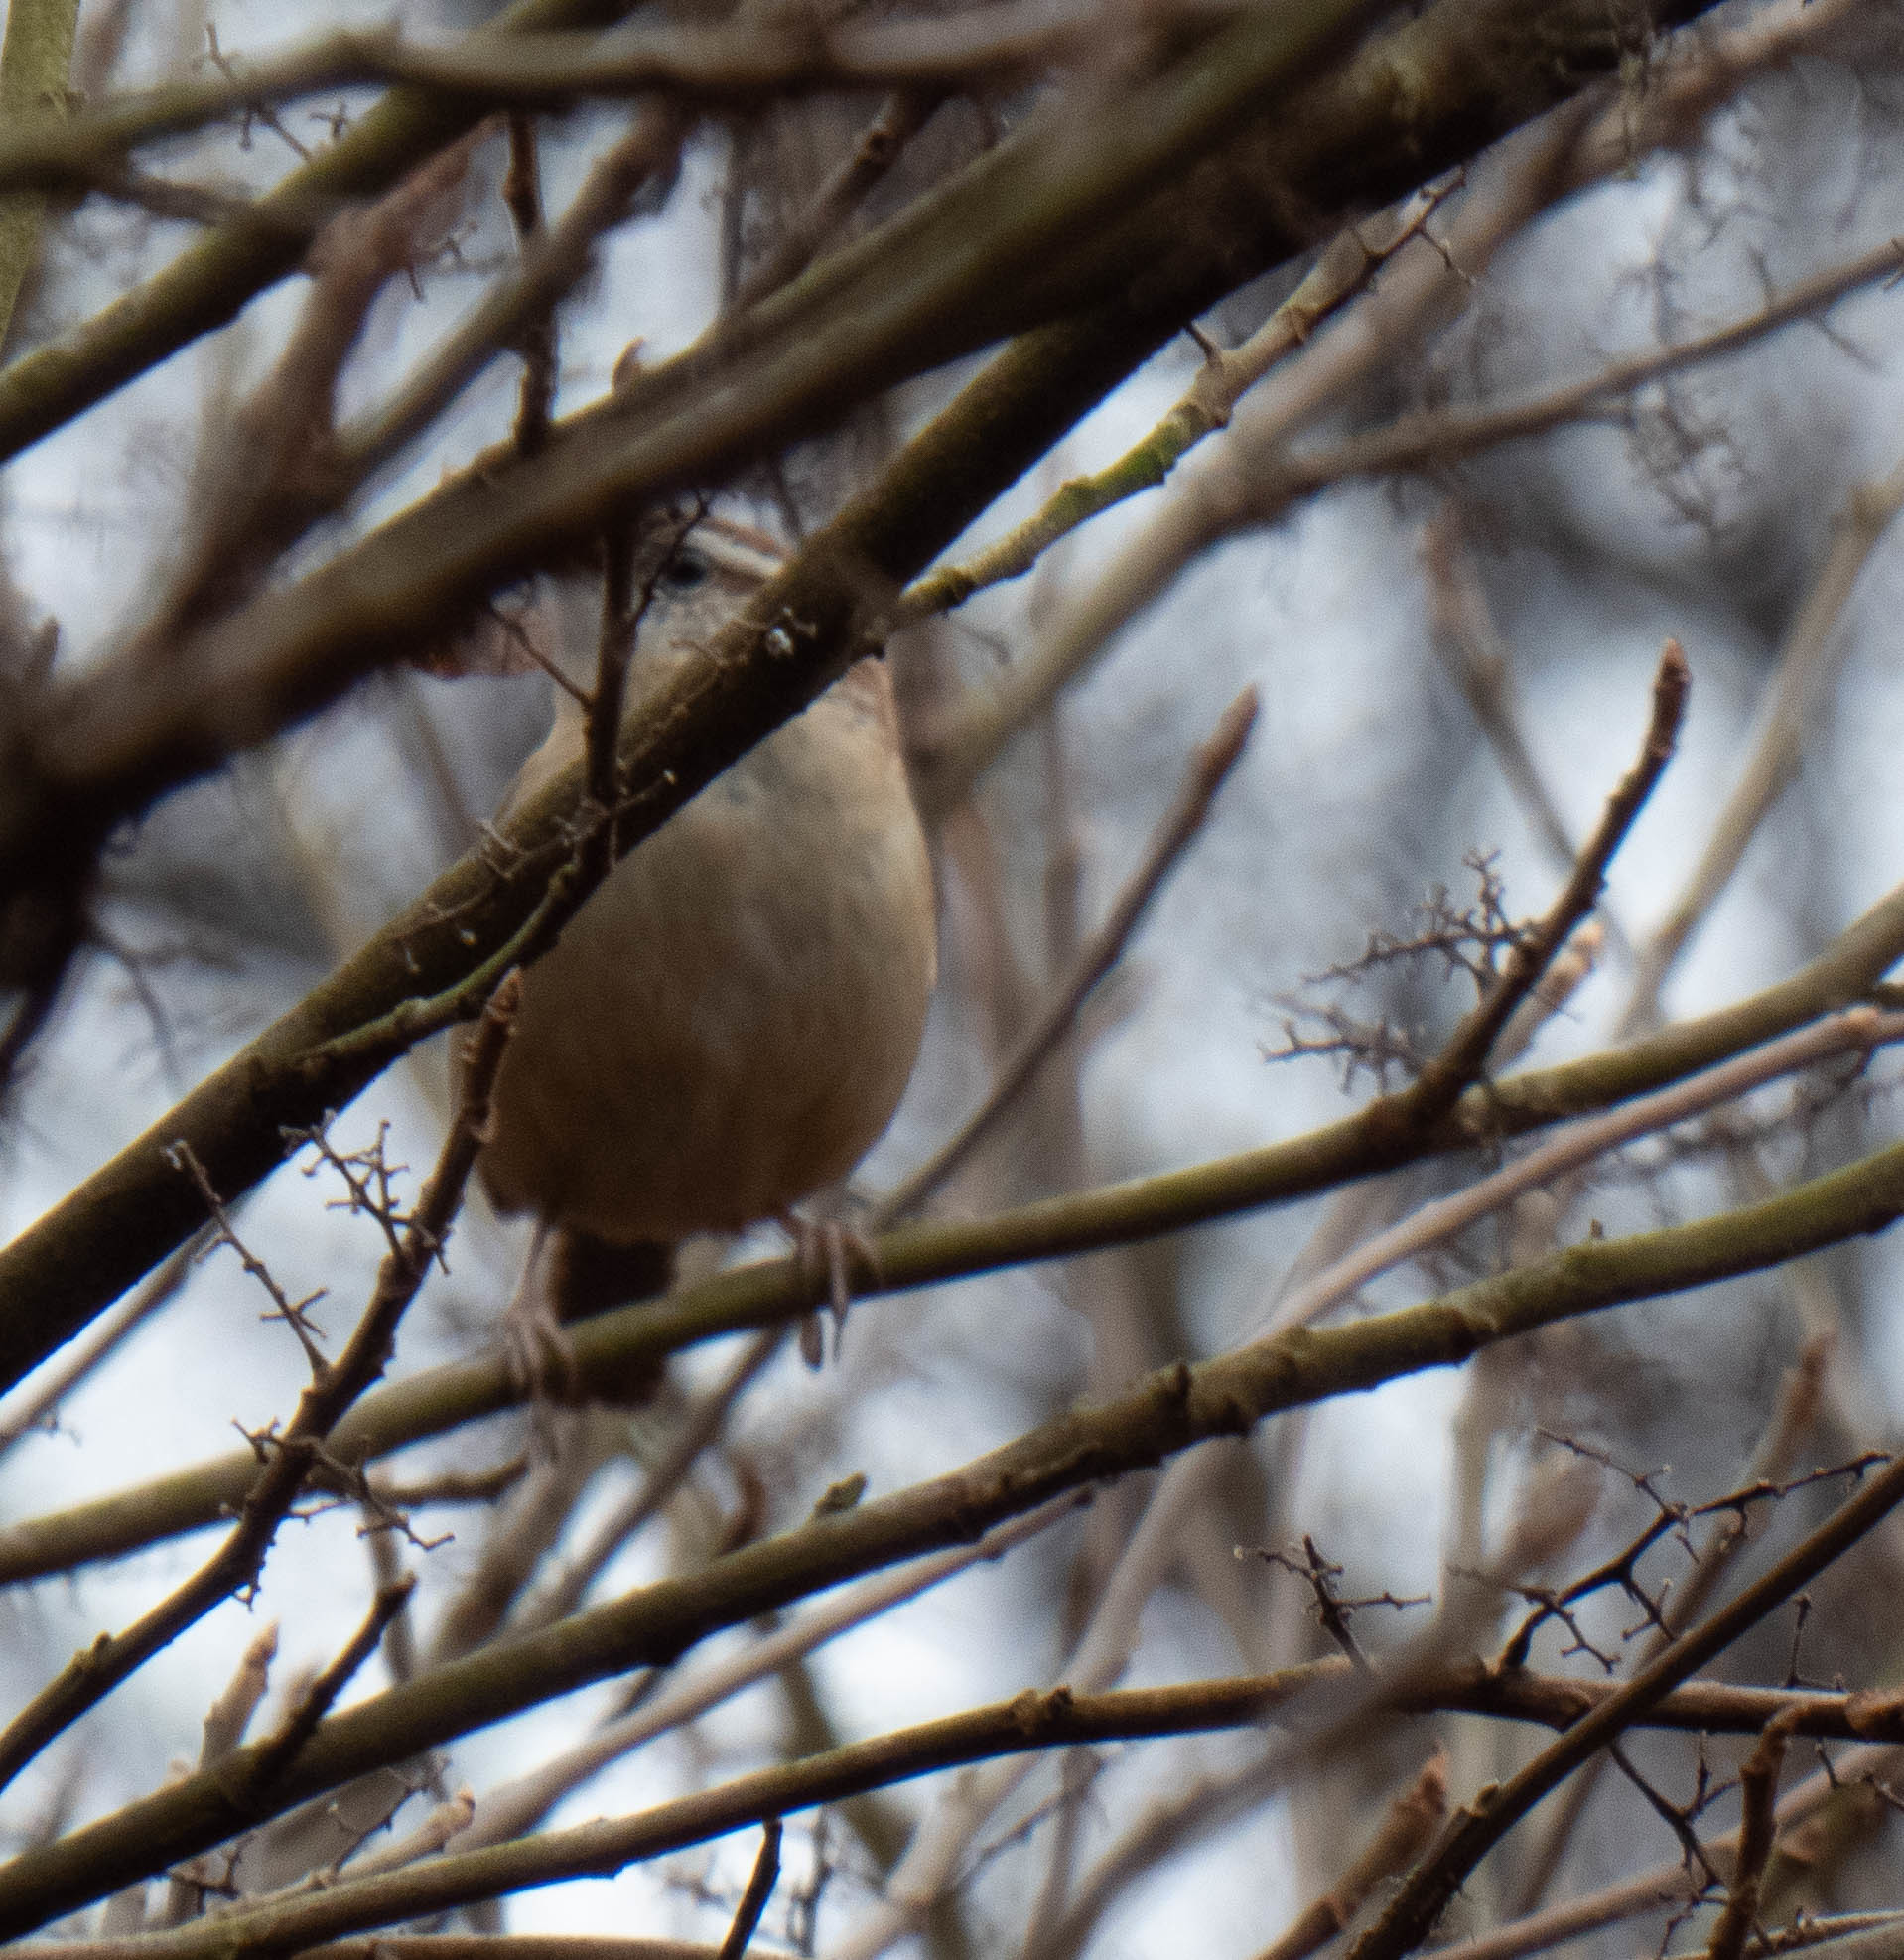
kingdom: Animalia
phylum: Chordata
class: Aves
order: Passeriformes
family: Troglodytidae
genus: Thryothorus
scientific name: Thryothorus ludovicianus
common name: Carolina wren
